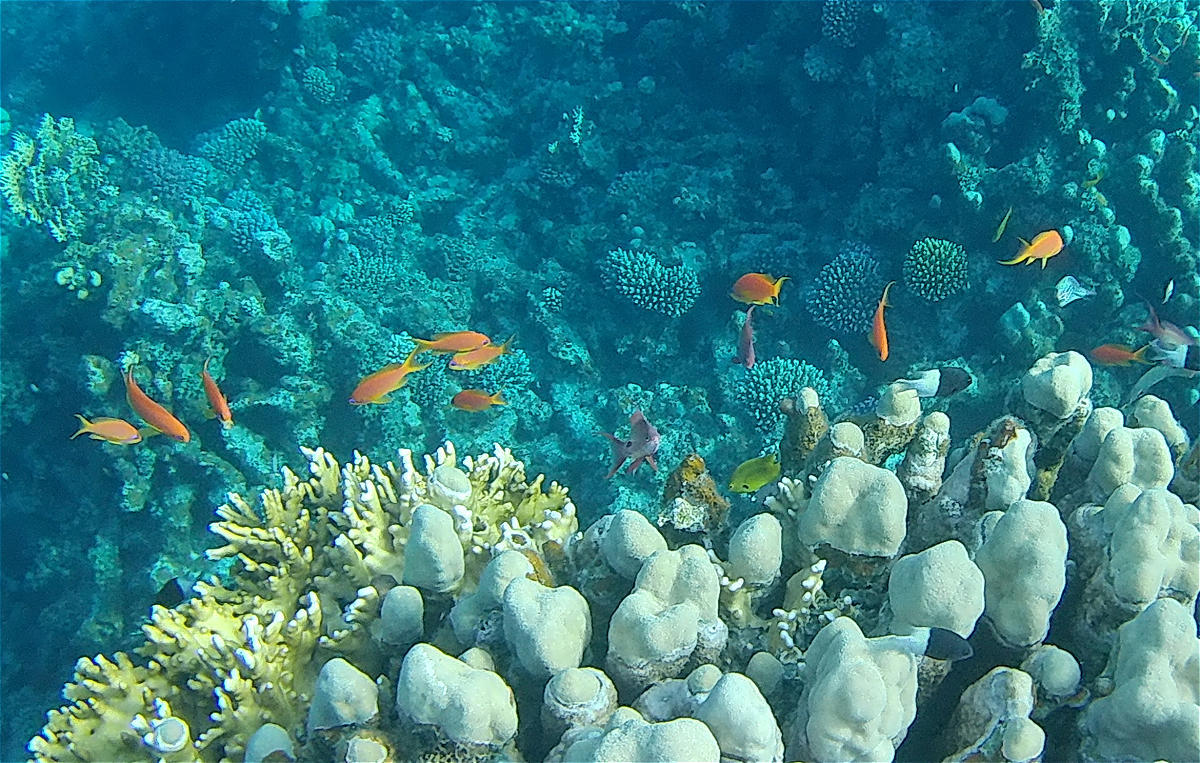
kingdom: Animalia
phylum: Chordata
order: Perciformes
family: Serranidae
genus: Pseudanthias
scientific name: Pseudanthias squamipinnis
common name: Scalefin anthias
